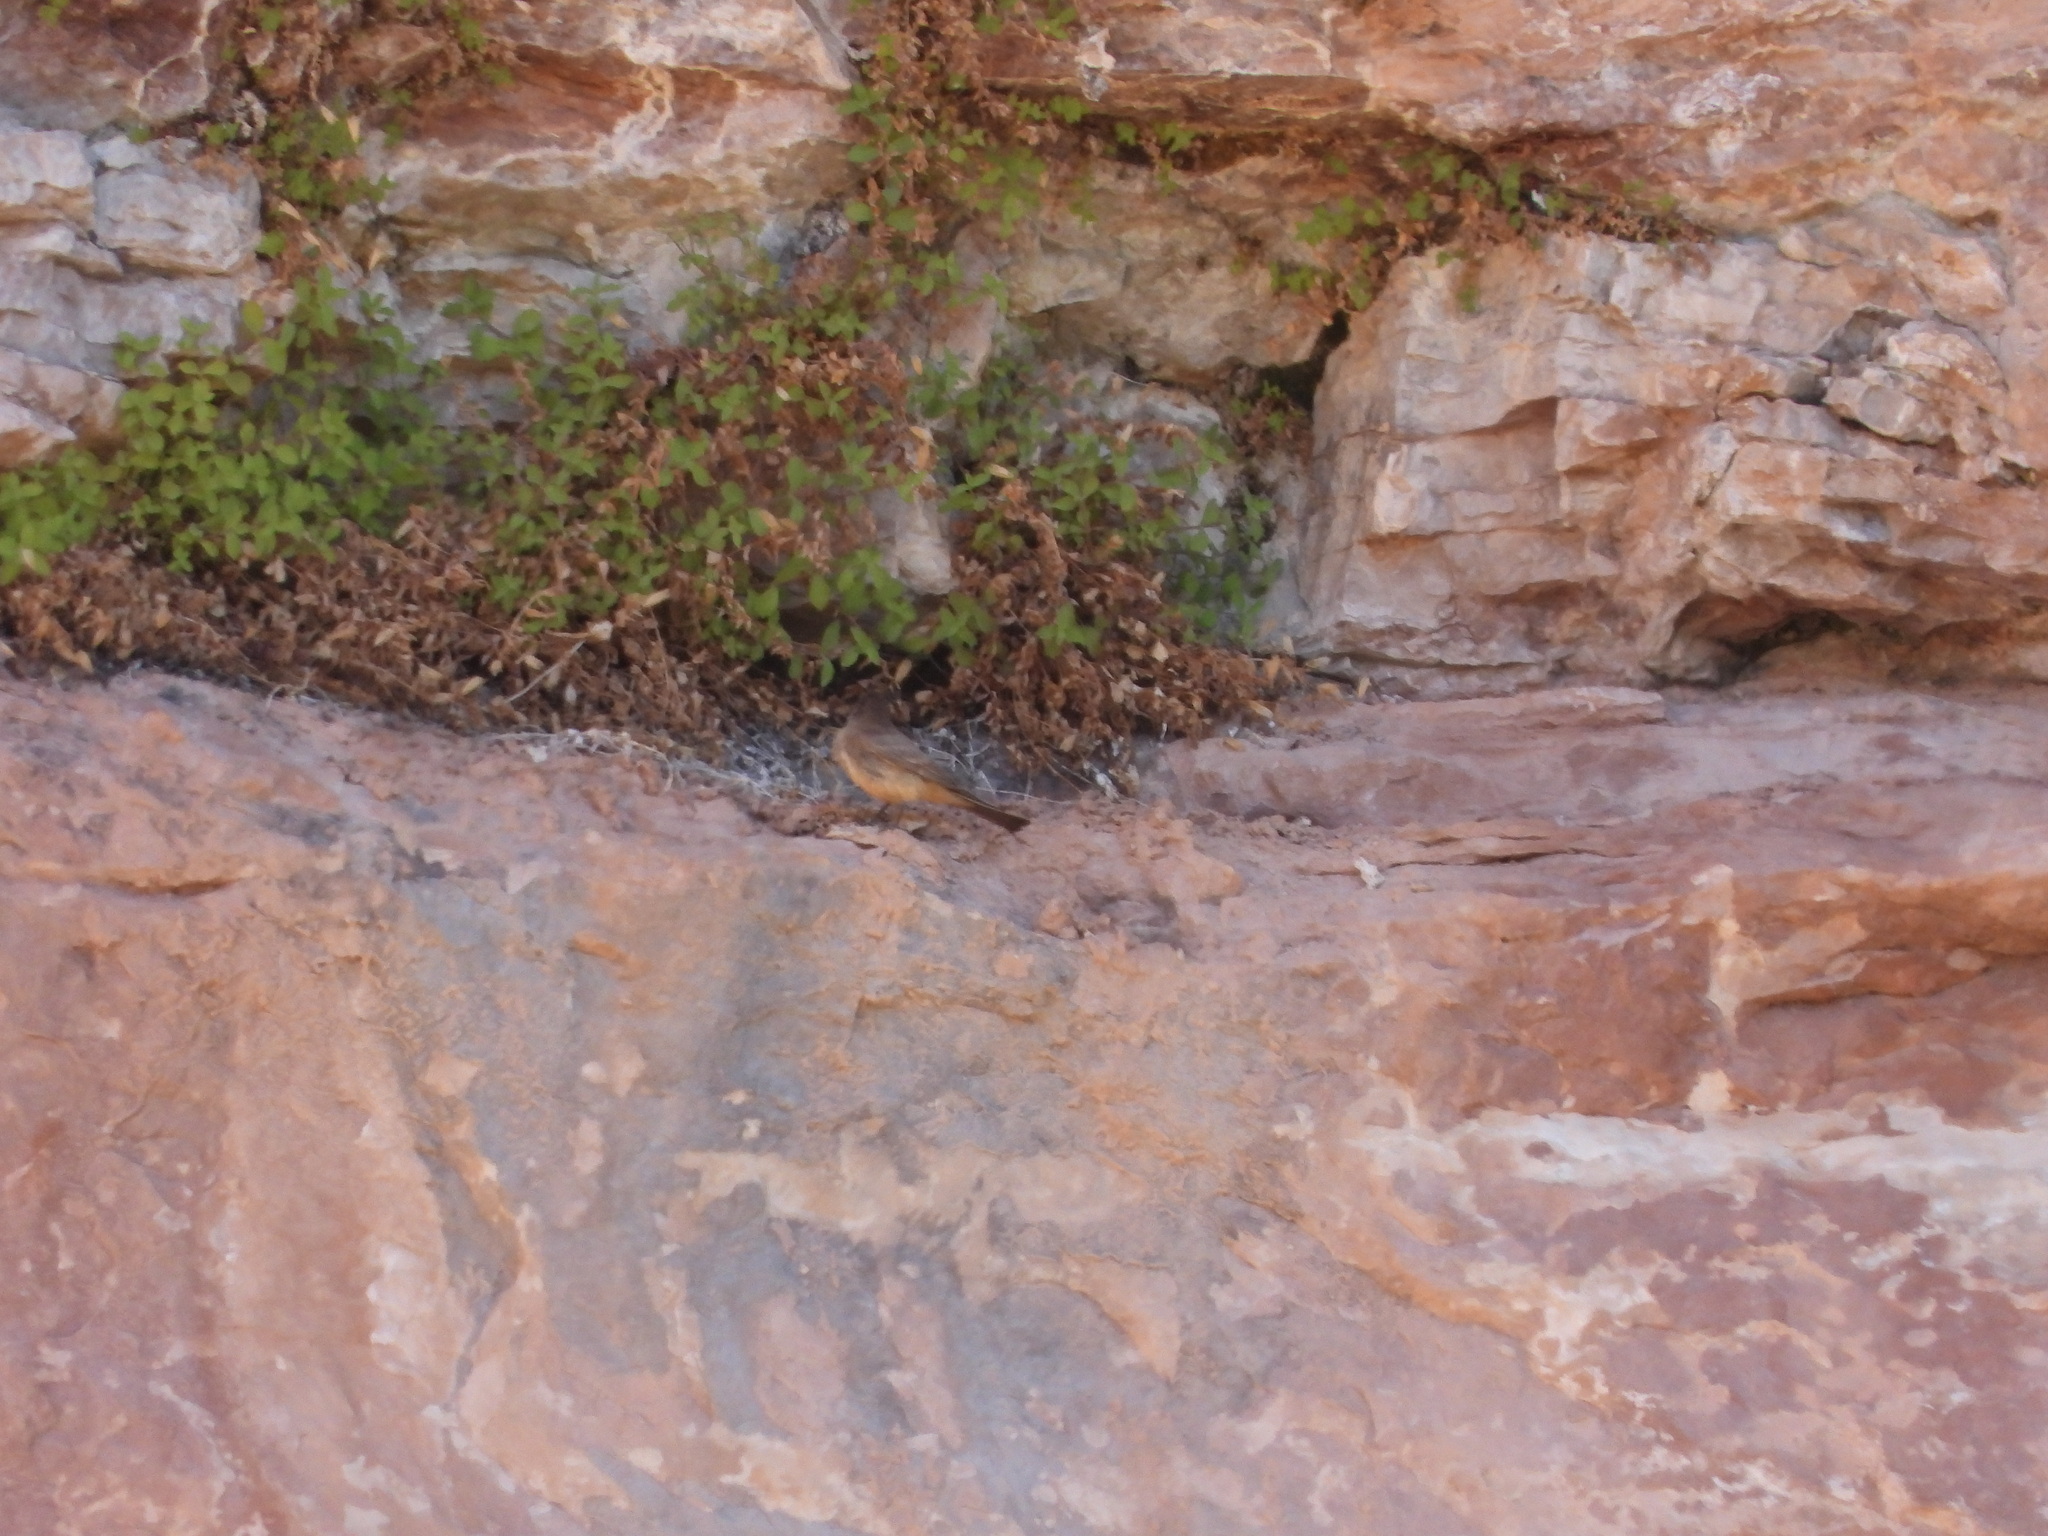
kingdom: Animalia
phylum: Chordata
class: Aves
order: Passeriformes
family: Tyrannidae
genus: Sayornis
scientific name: Sayornis saya
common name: Say's phoebe
